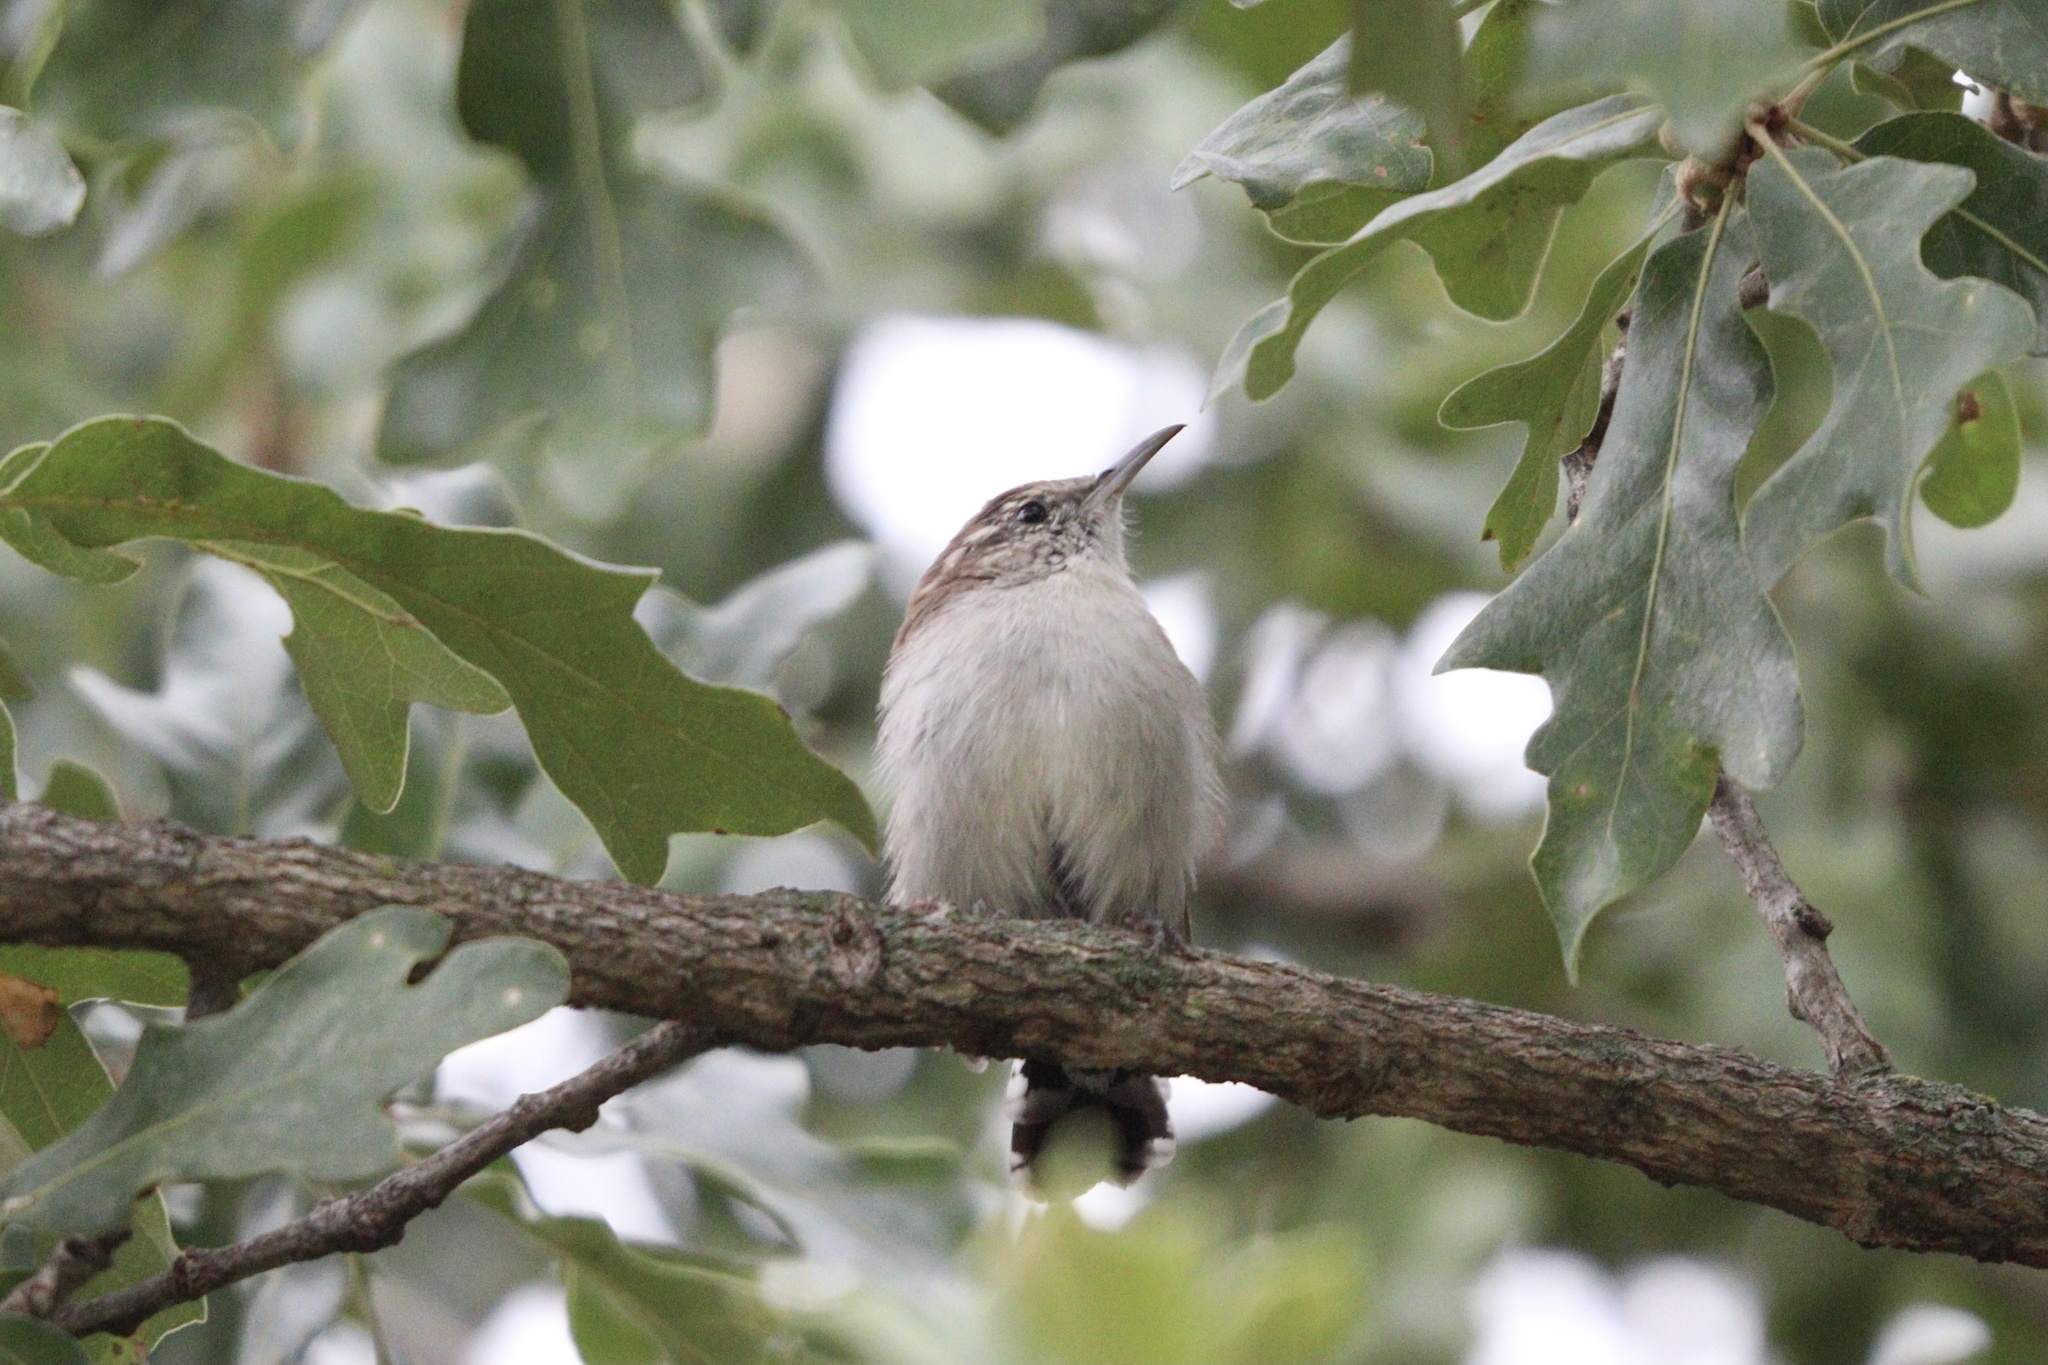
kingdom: Animalia
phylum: Chordata
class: Aves
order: Passeriformes
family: Troglodytidae
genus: Thryomanes
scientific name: Thryomanes bewickii
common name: Bewick's wren
